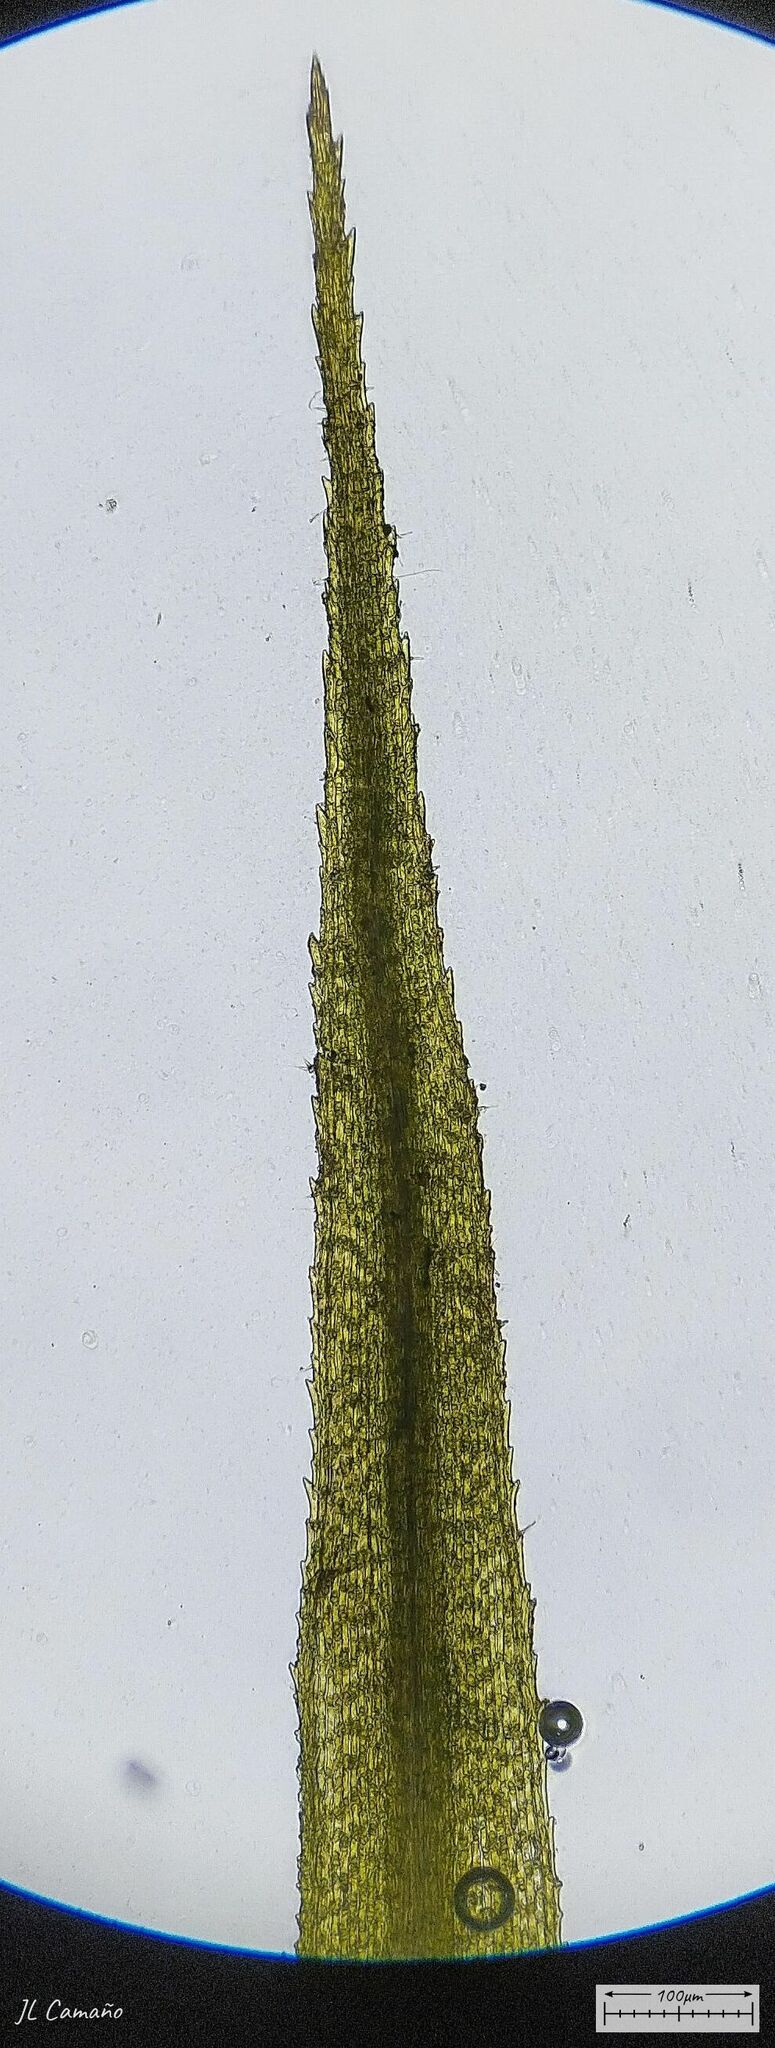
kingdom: Plantae
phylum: Bryophyta
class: Bryopsida
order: Bartramiales
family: Bartramiaceae
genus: Bartramia
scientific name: Bartramia aprica
